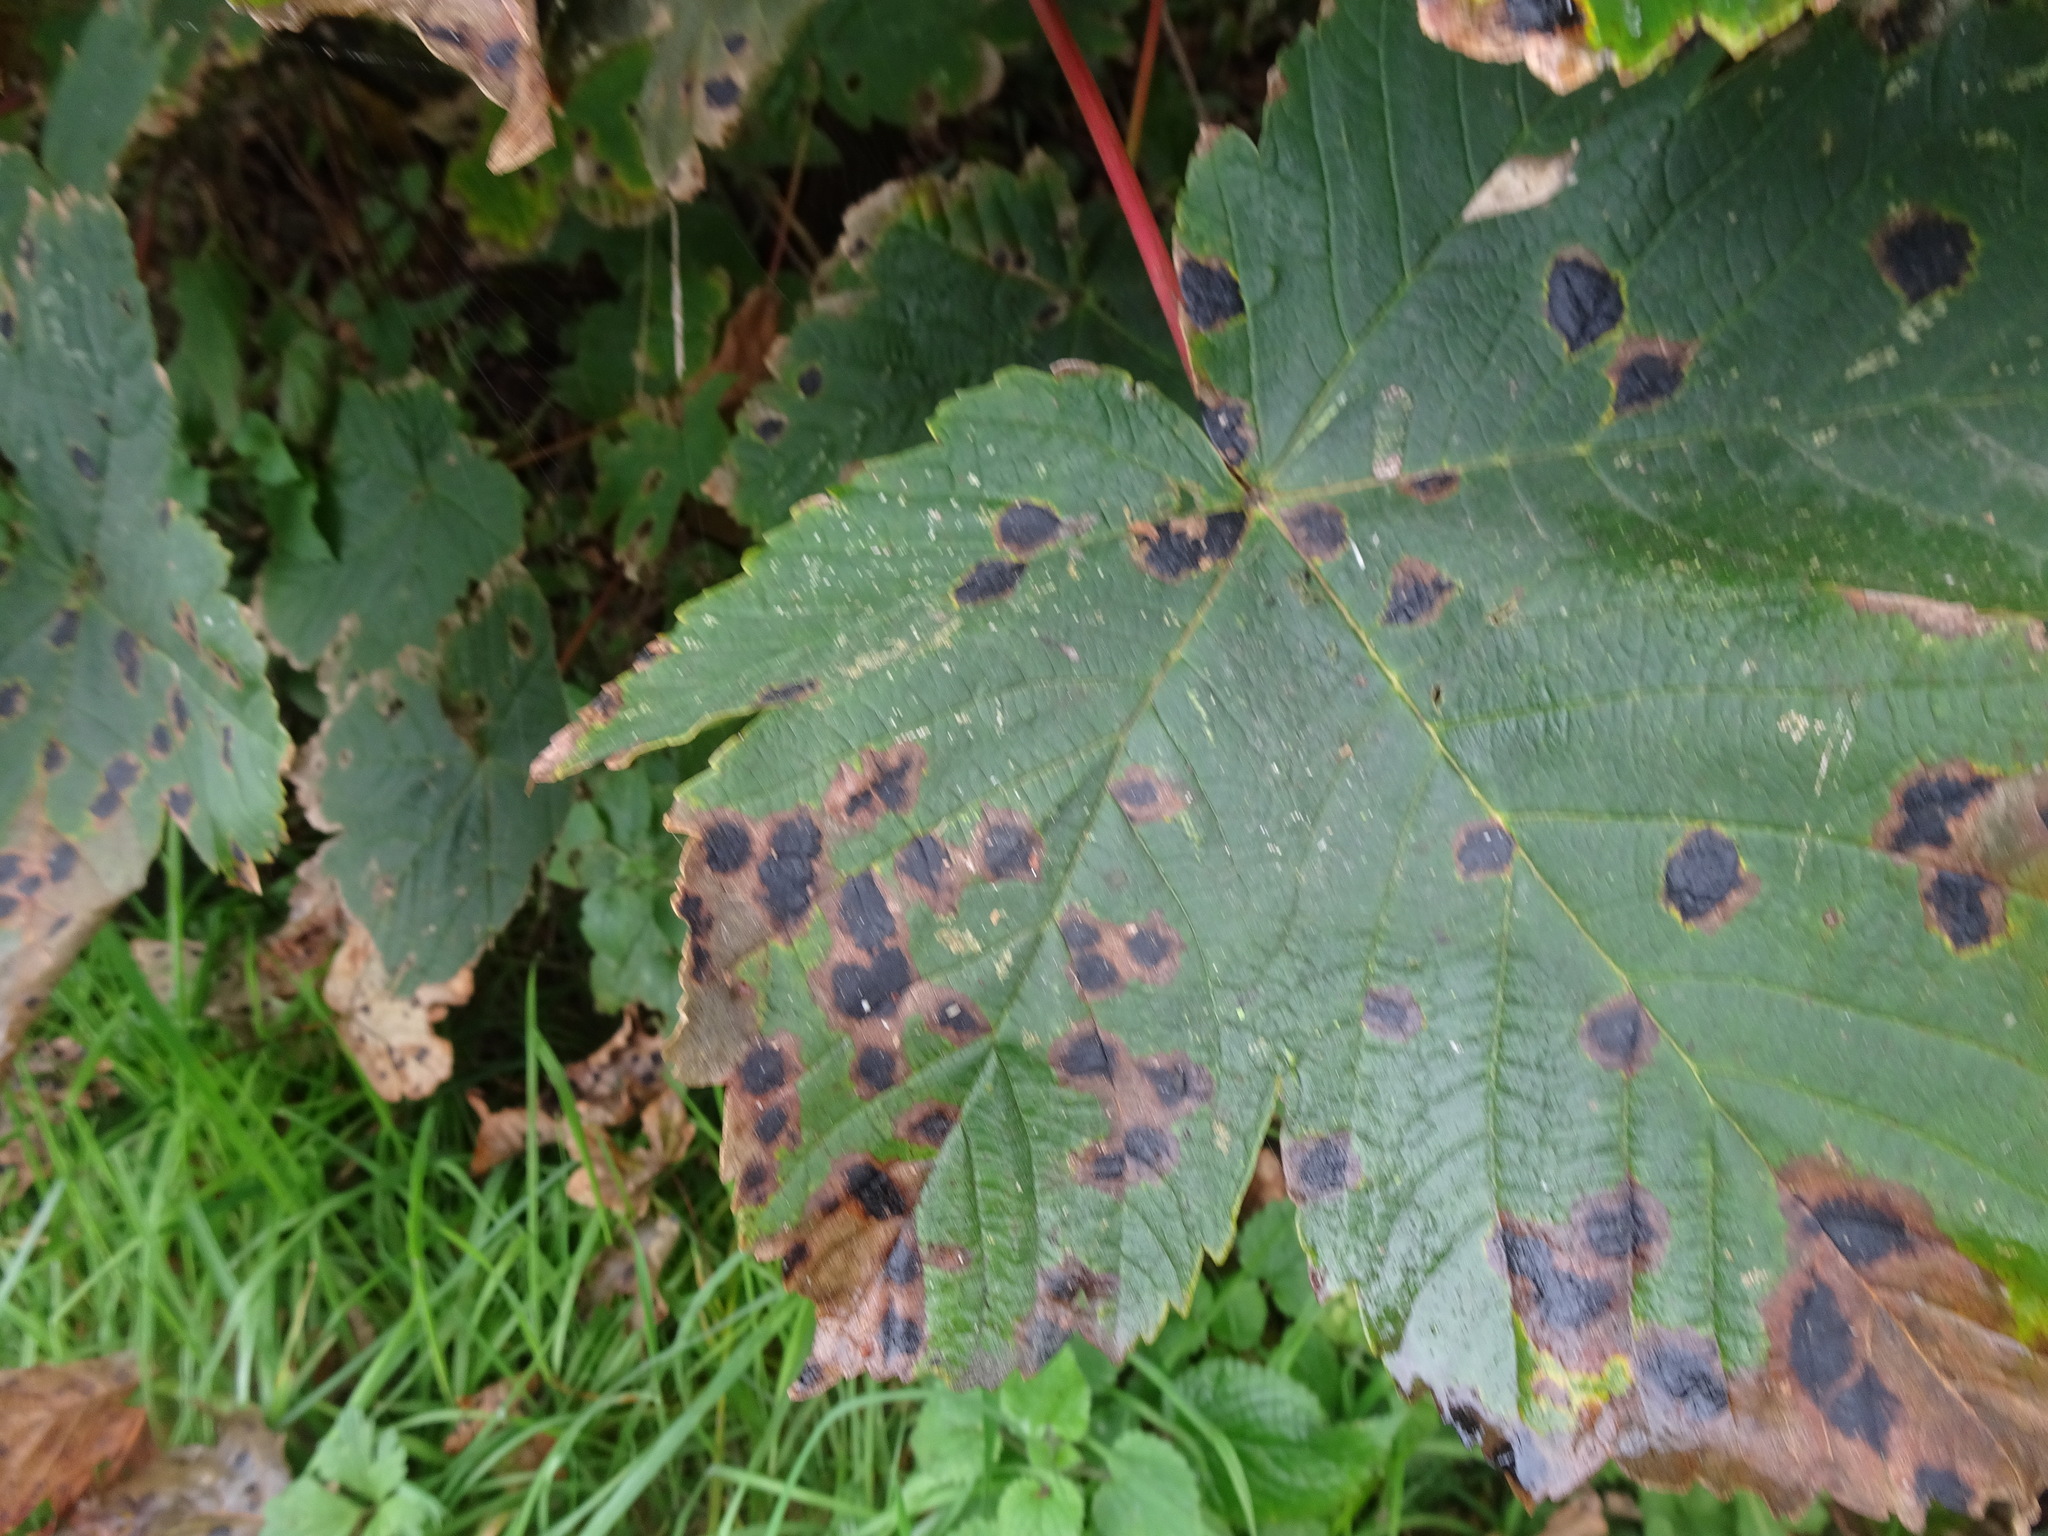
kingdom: Fungi
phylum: Ascomycota
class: Leotiomycetes
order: Rhytismatales
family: Rhytismataceae
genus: Rhytisma
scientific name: Rhytisma acerinum
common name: European tar spot
